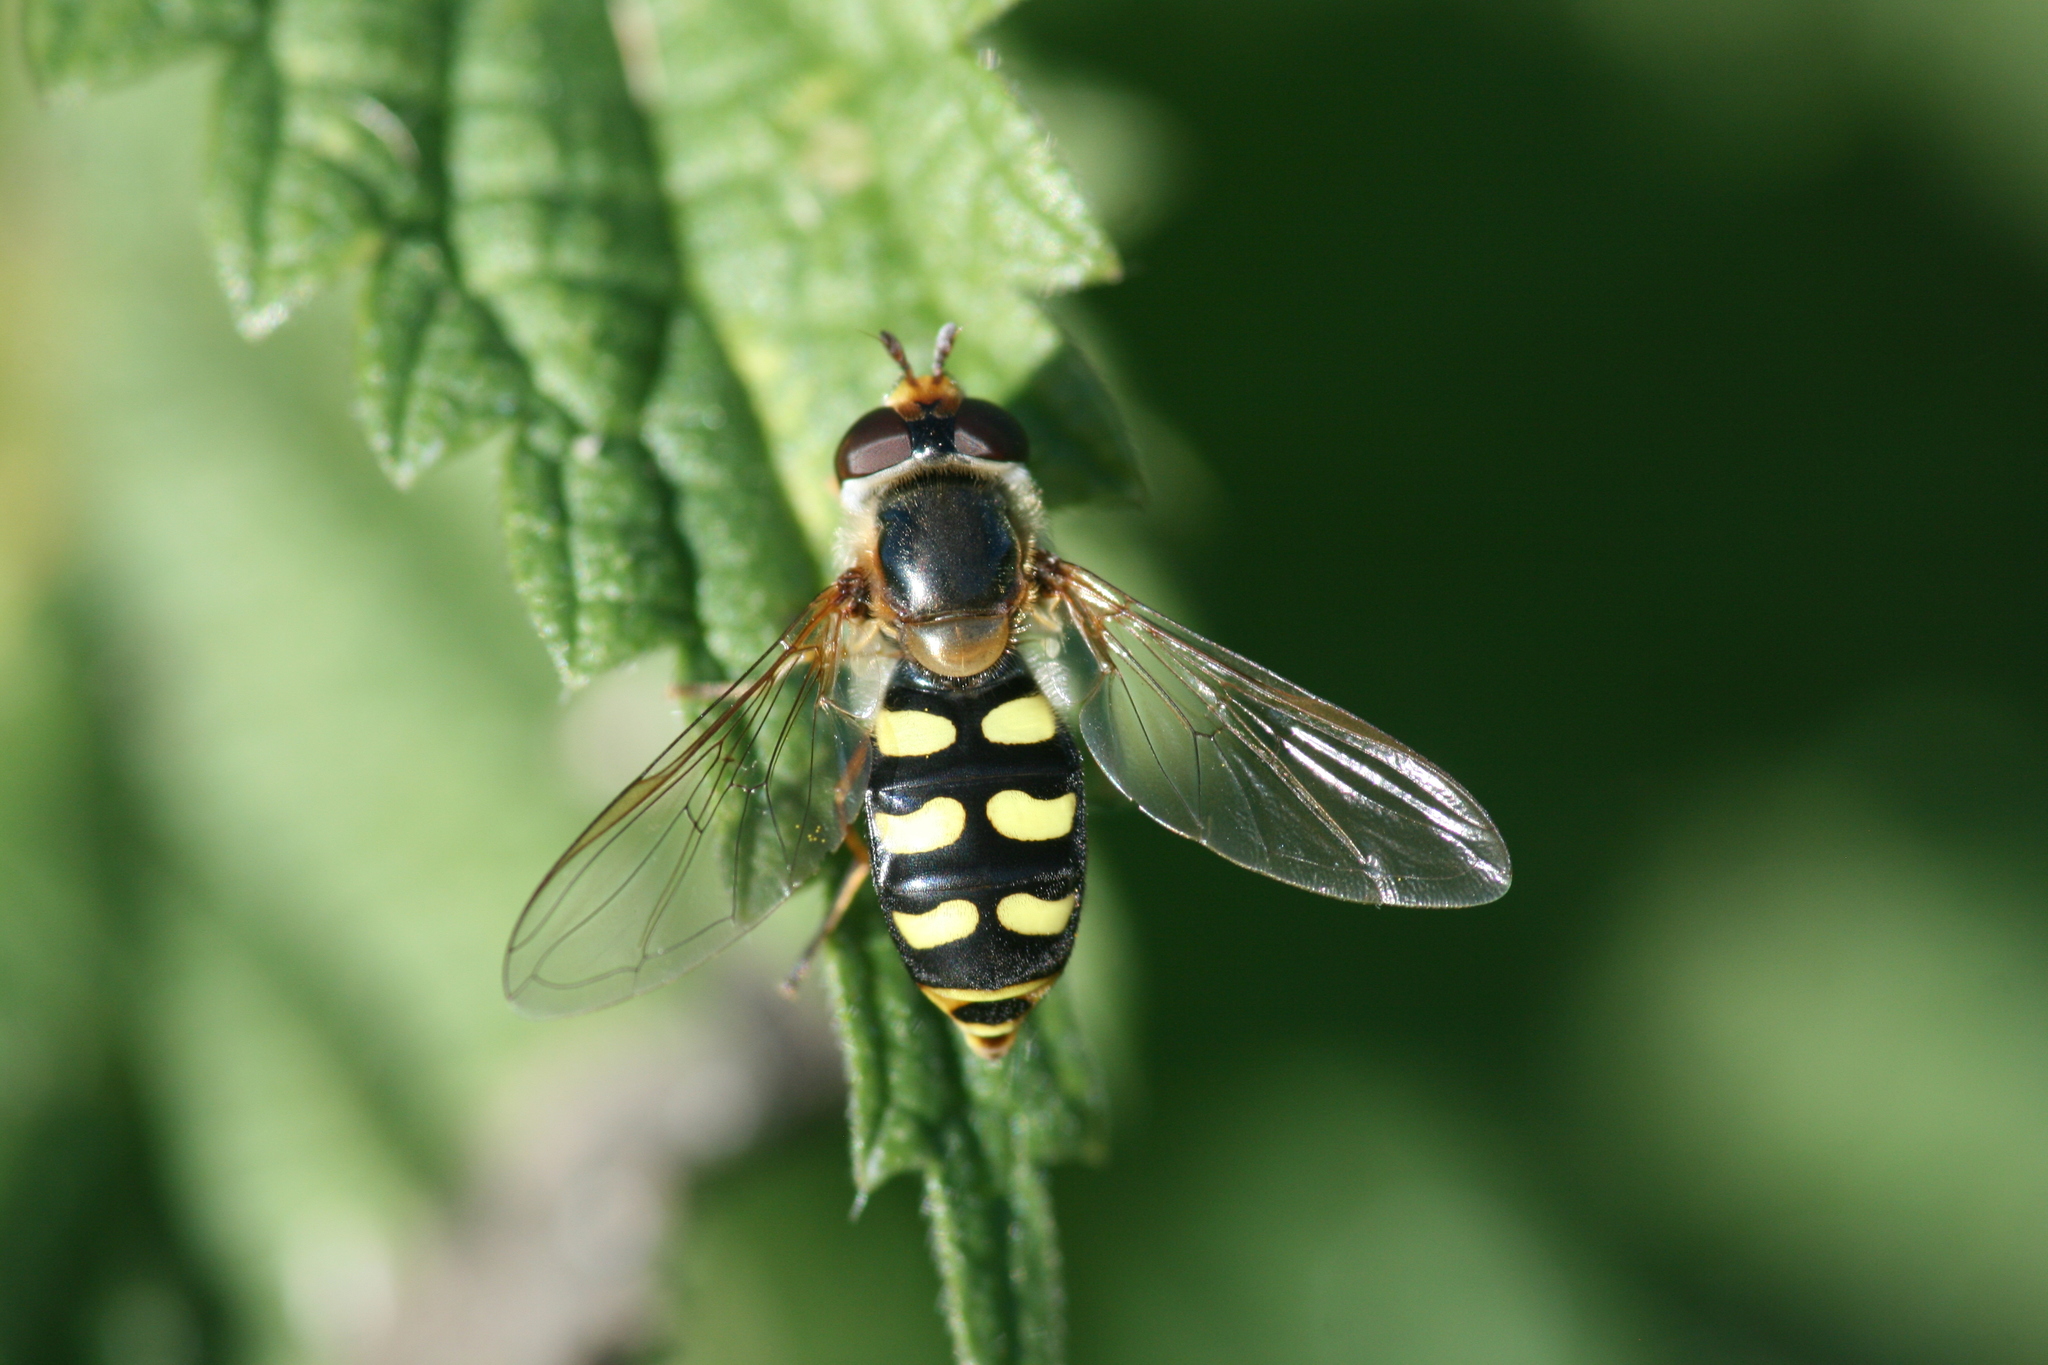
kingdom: Animalia
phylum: Arthropoda
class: Insecta
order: Diptera
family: Syrphidae
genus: Eupeodes
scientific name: Eupeodes luniger
